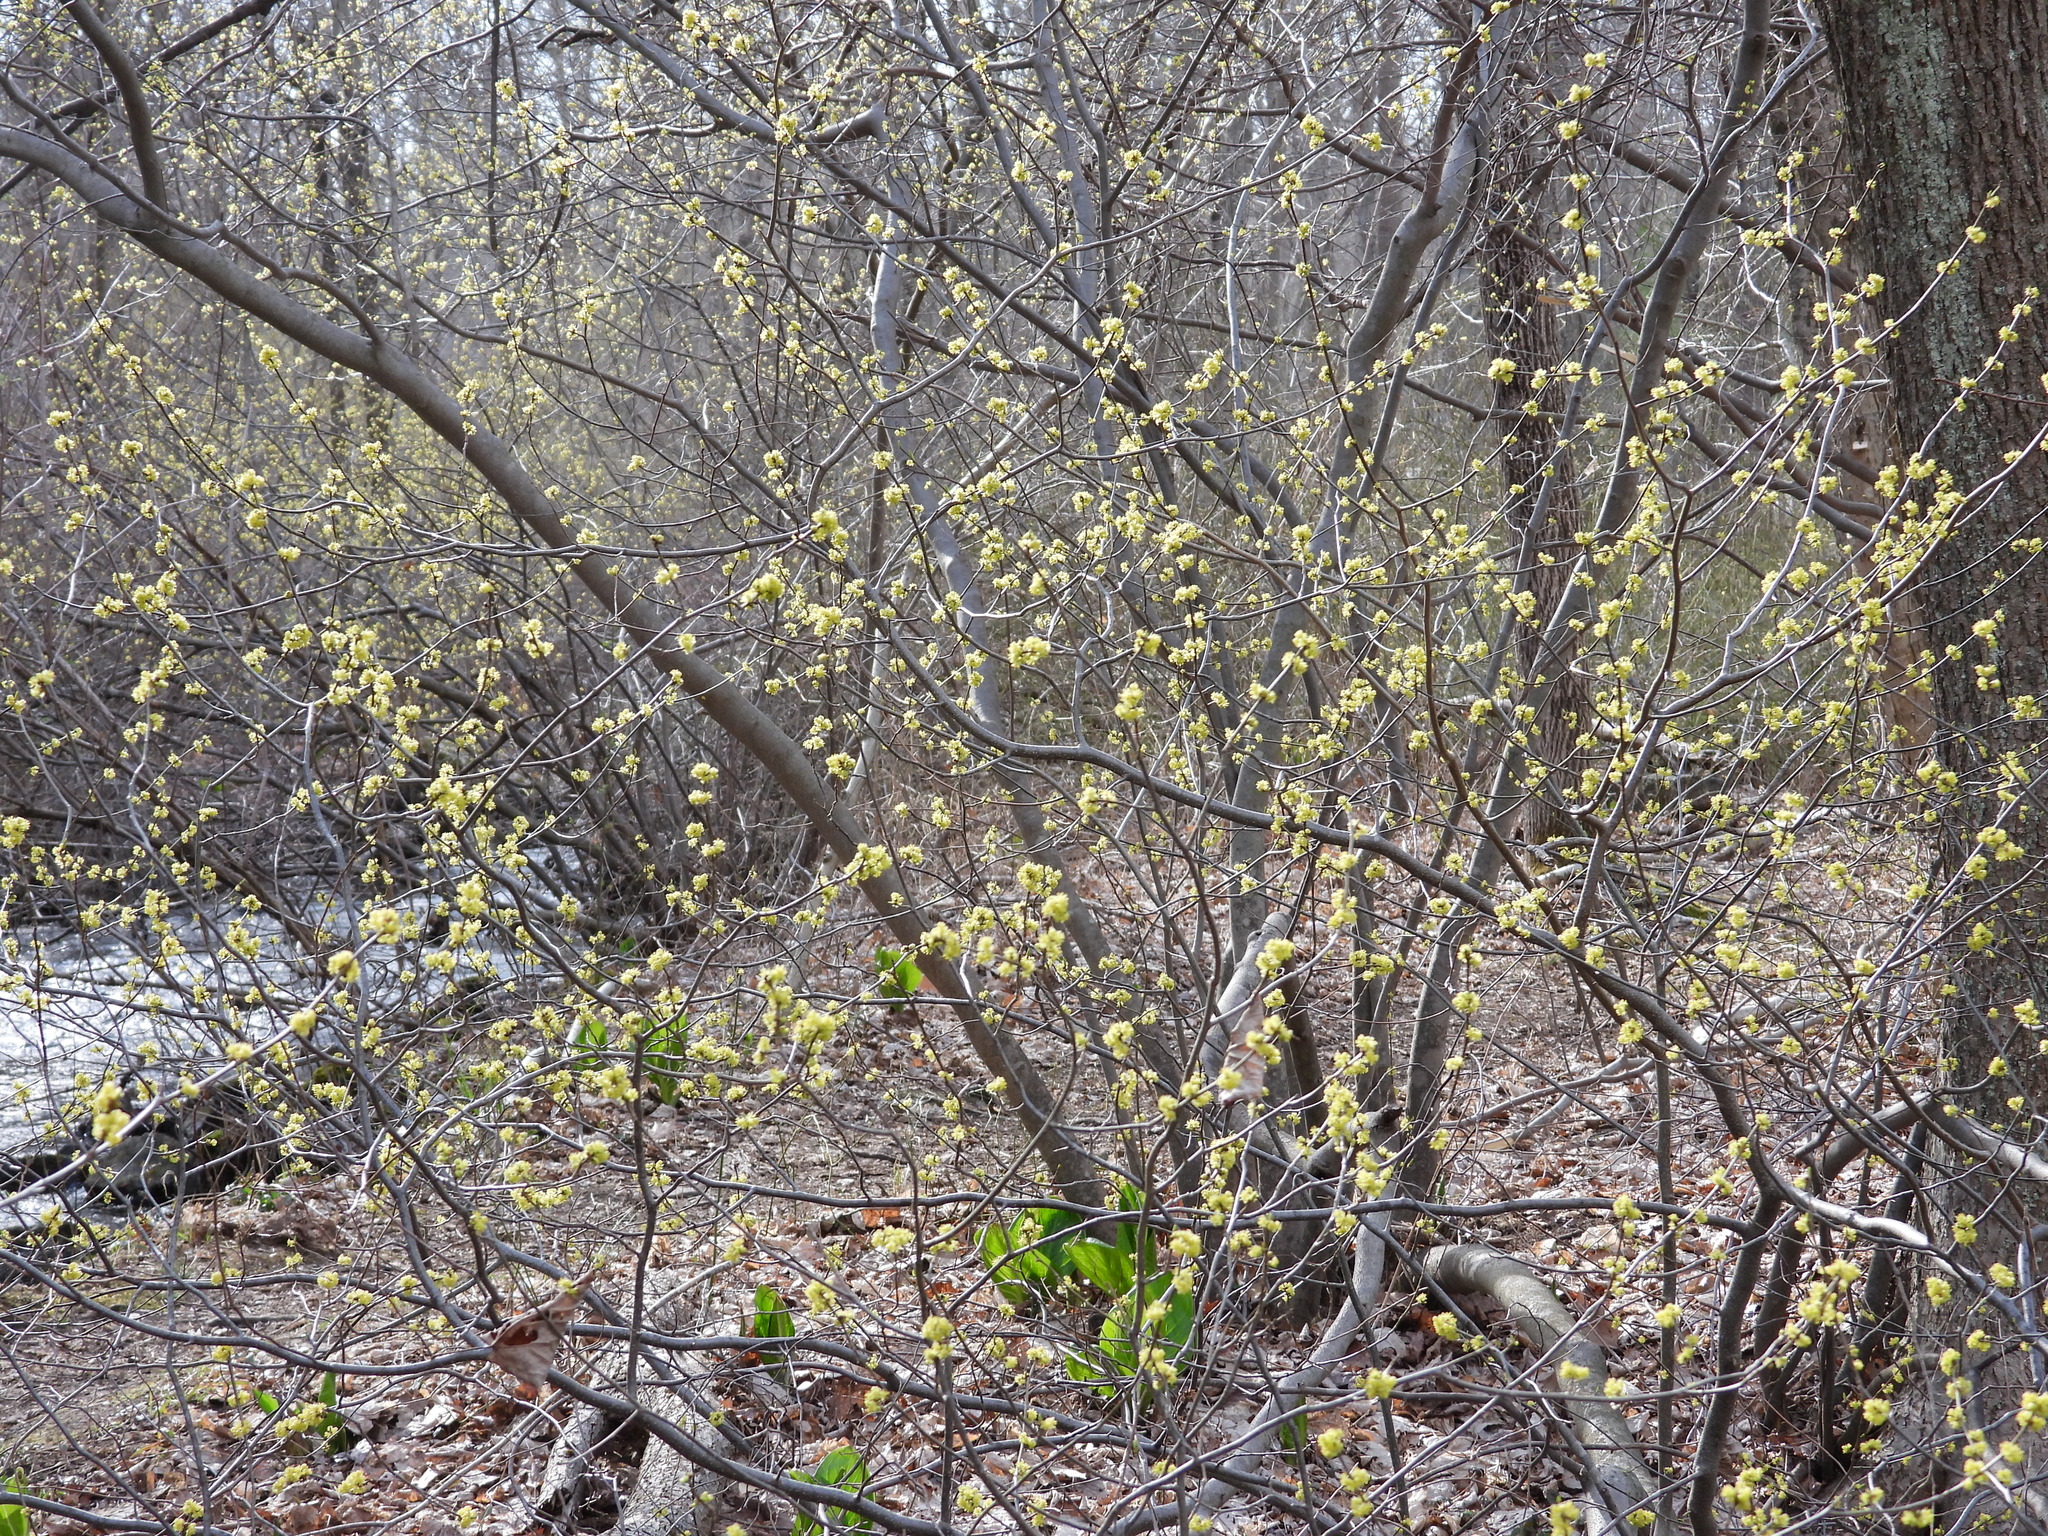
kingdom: Plantae
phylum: Tracheophyta
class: Magnoliopsida
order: Laurales
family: Lauraceae
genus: Lindera
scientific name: Lindera benzoin
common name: Spicebush
